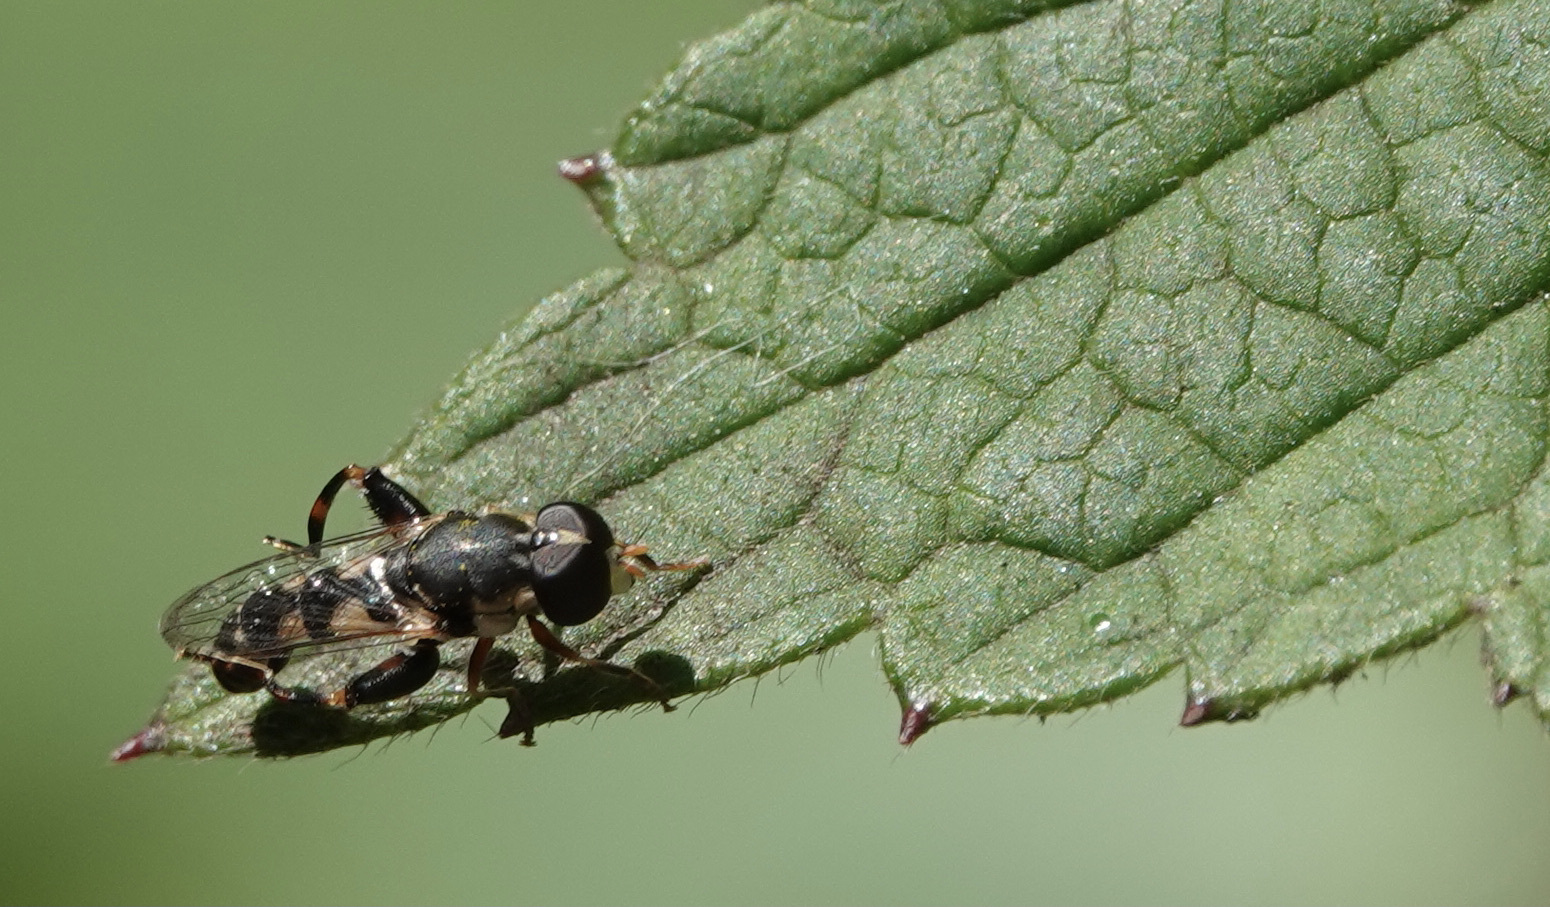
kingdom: Animalia
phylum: Arthropoda
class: Insecta
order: Diptera
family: Syrphidae
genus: Syritta
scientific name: Syritta pipiens
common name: Hover fly
